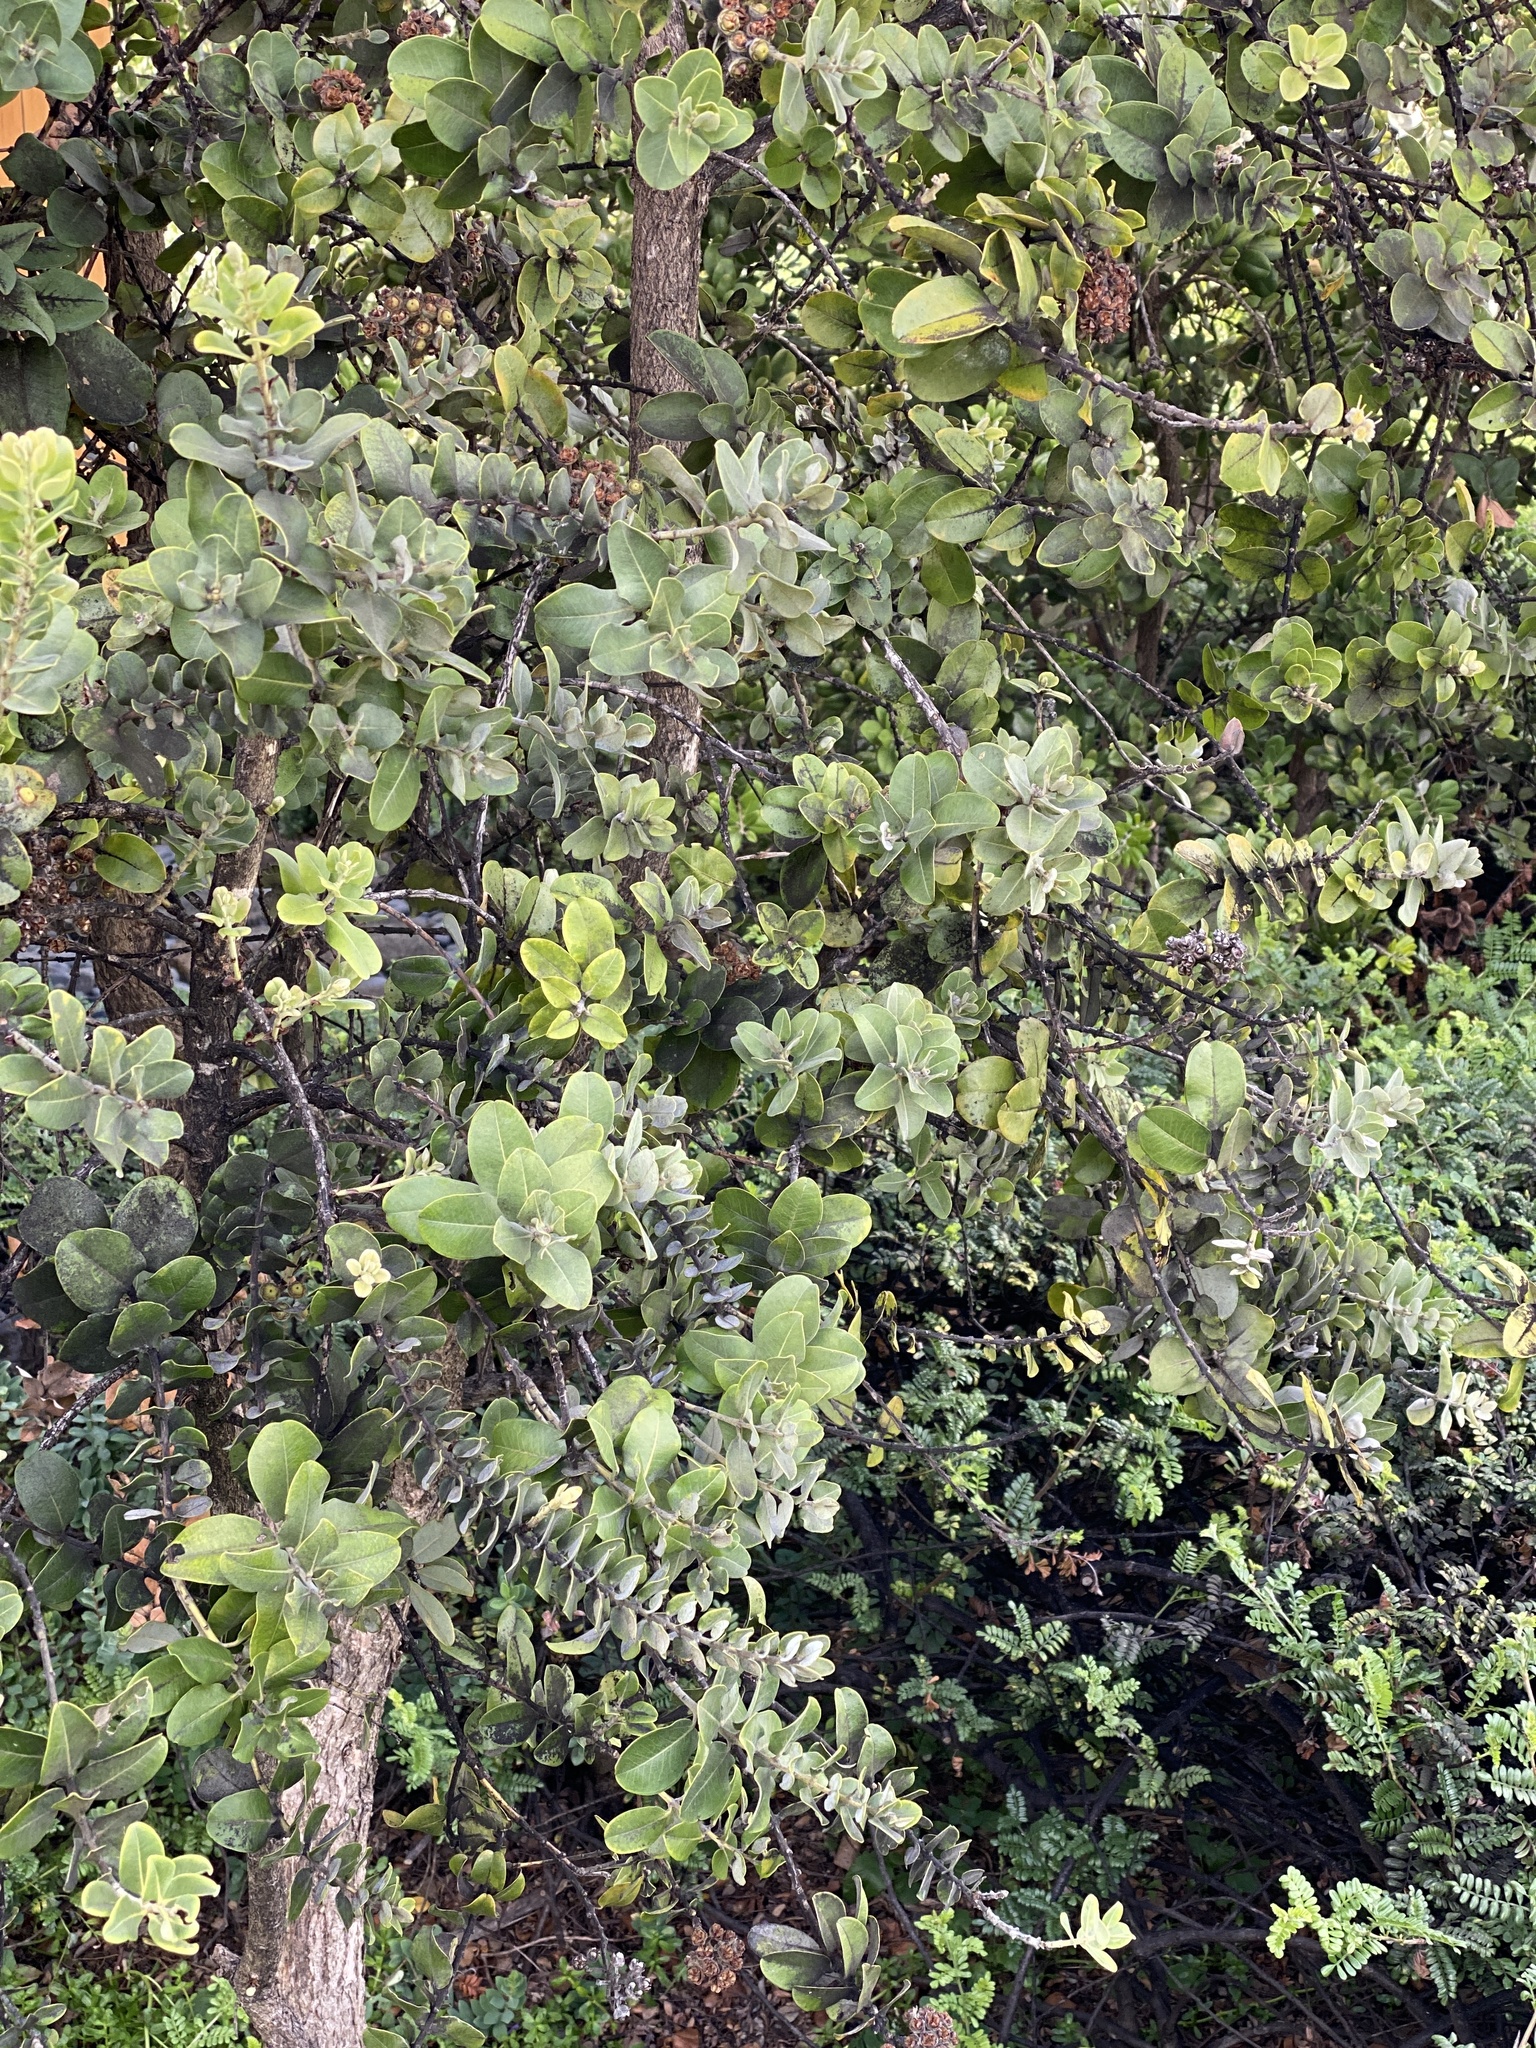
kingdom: Plantae
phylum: Tracheophyta
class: Magnoliopsida
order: Myrtales
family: Myrtaceae
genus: Metrosideros
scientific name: Metrosideros polymorpha
